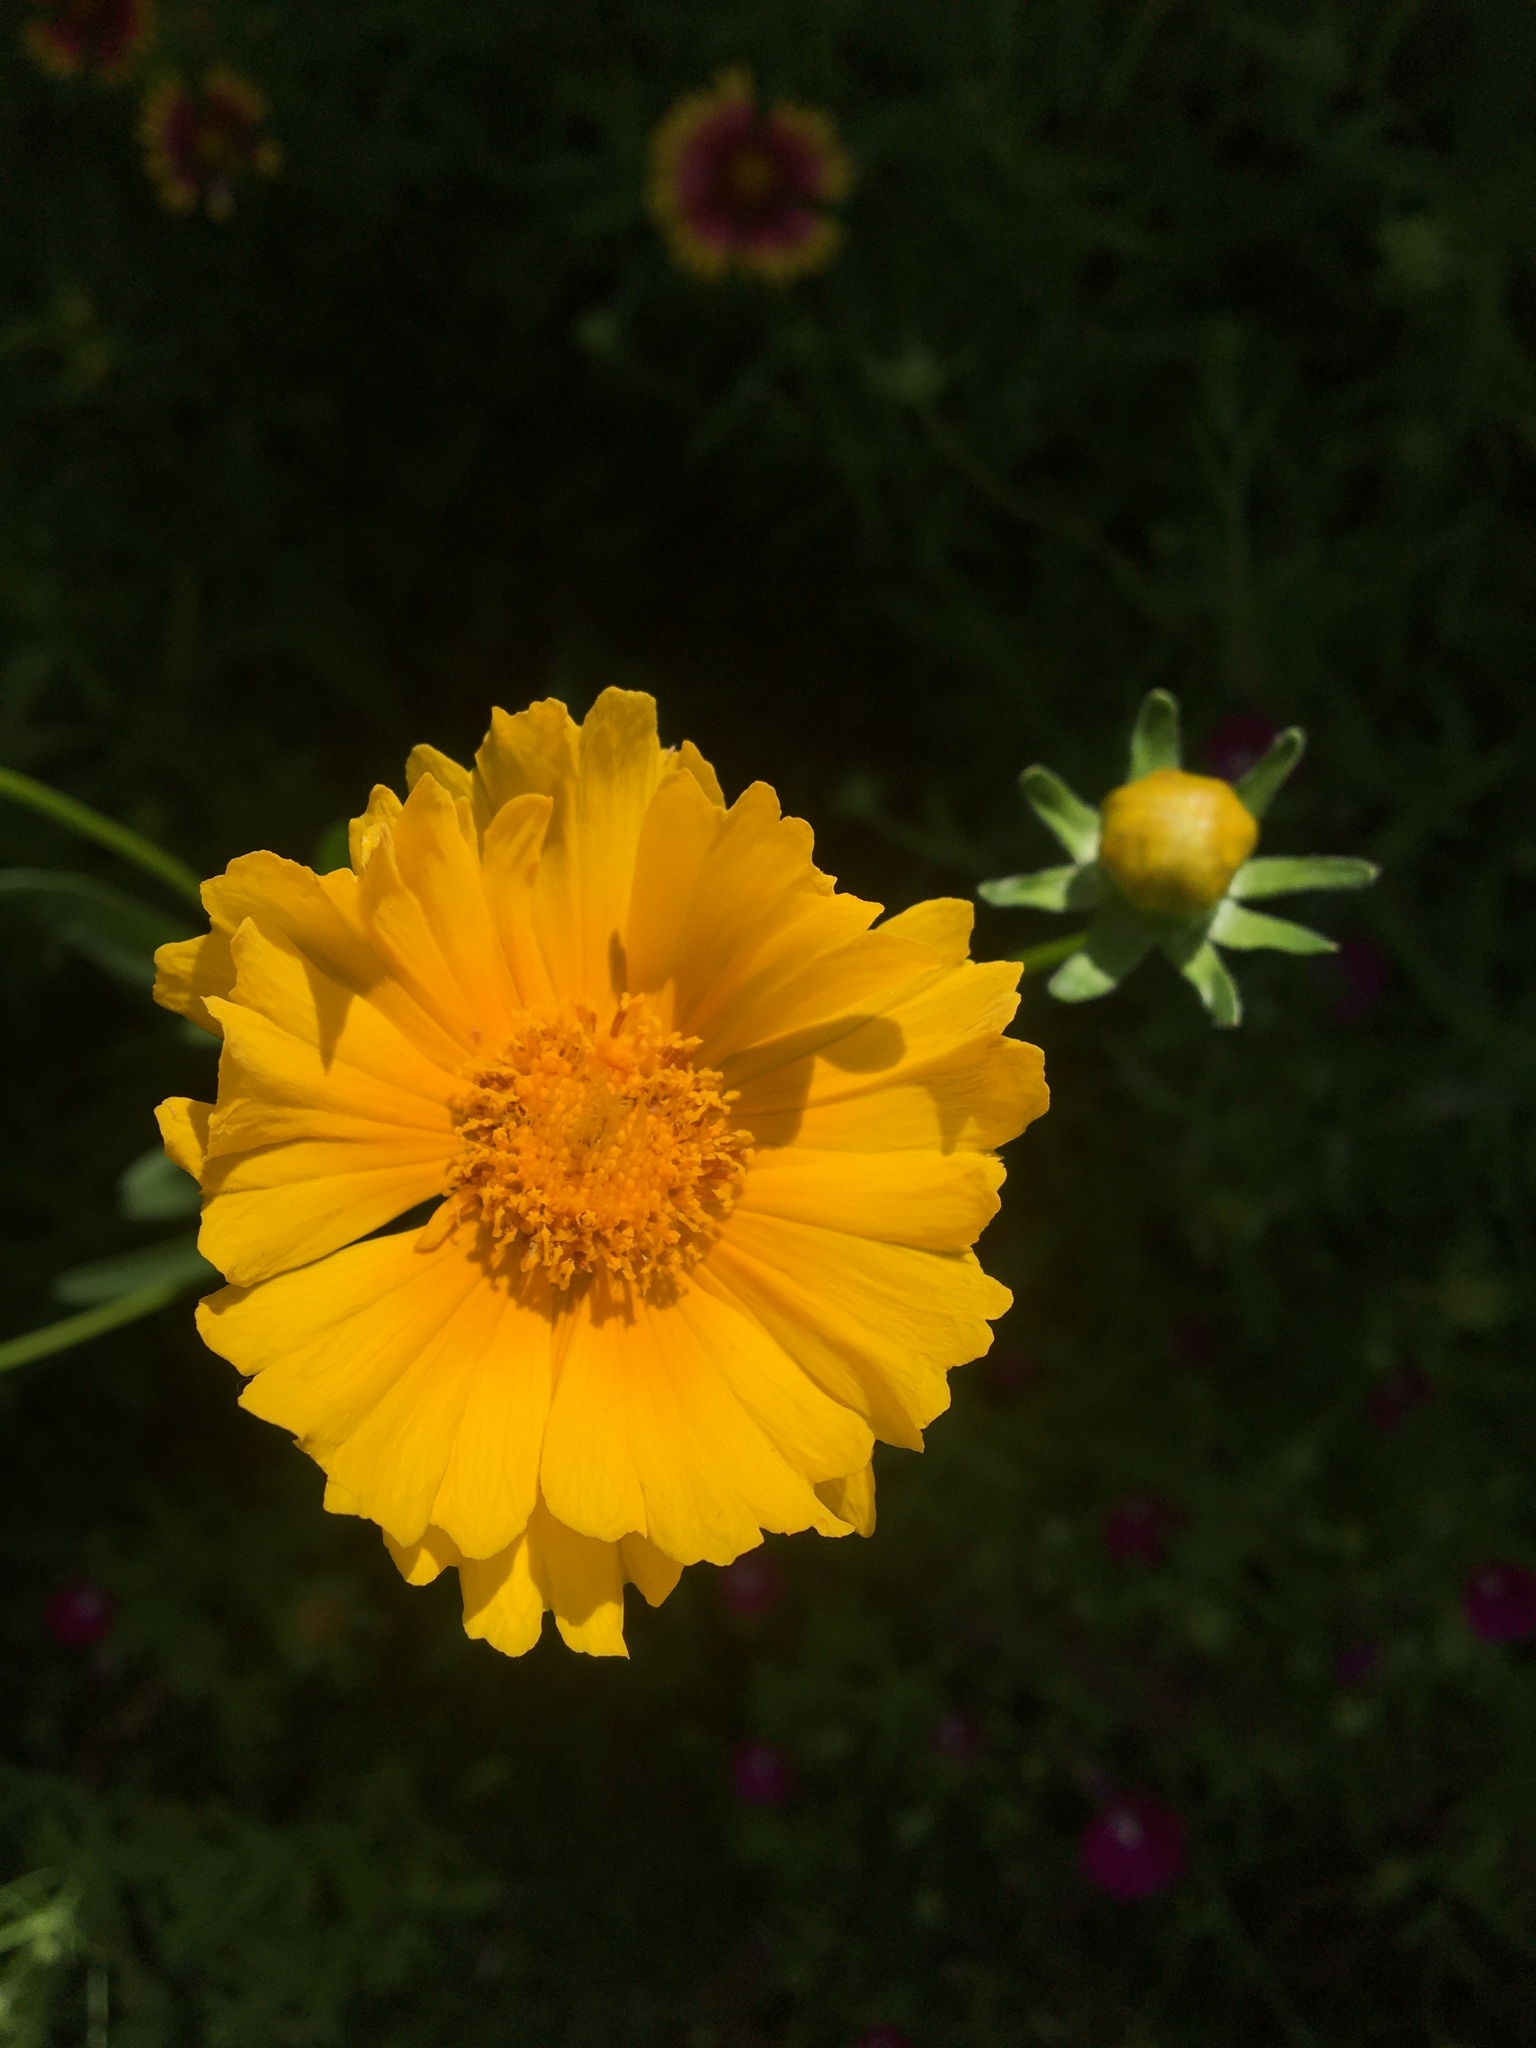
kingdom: Plantae
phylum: Tracheophyta
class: Magnoliopsida
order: Asterales
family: Asteraceae
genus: Coreopsis
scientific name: Coreopsis lanceolata
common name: Garden coreopsis
